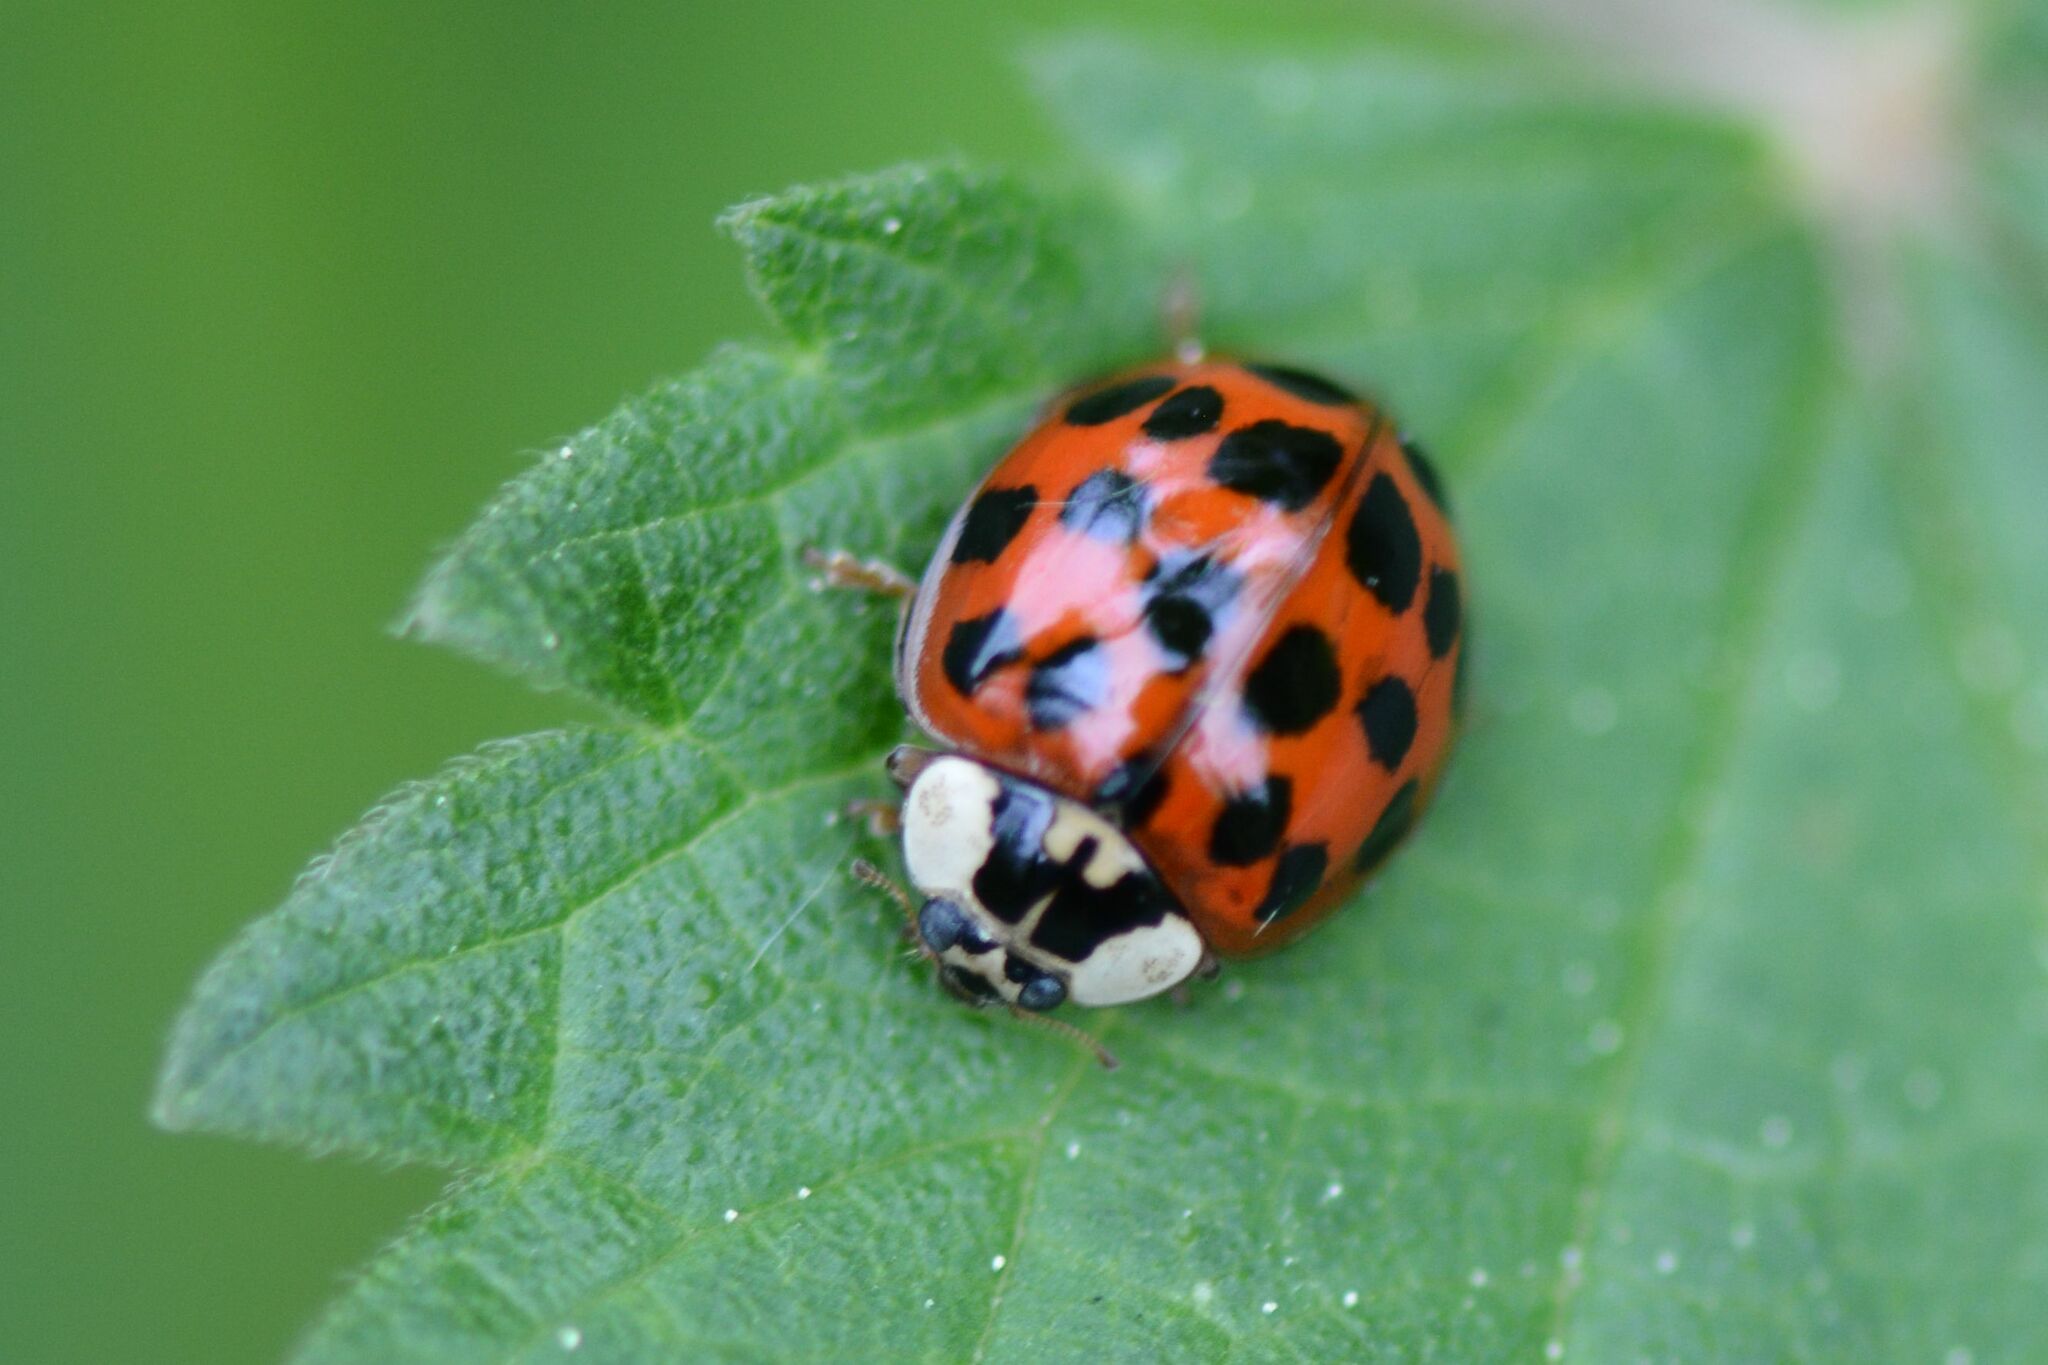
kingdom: Animalia
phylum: Arthropoda
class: Insecta
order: Coleoptera
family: Coccinellidae
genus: Harmonia
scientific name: Harmonia axyridis
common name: Harlequin ladybird
